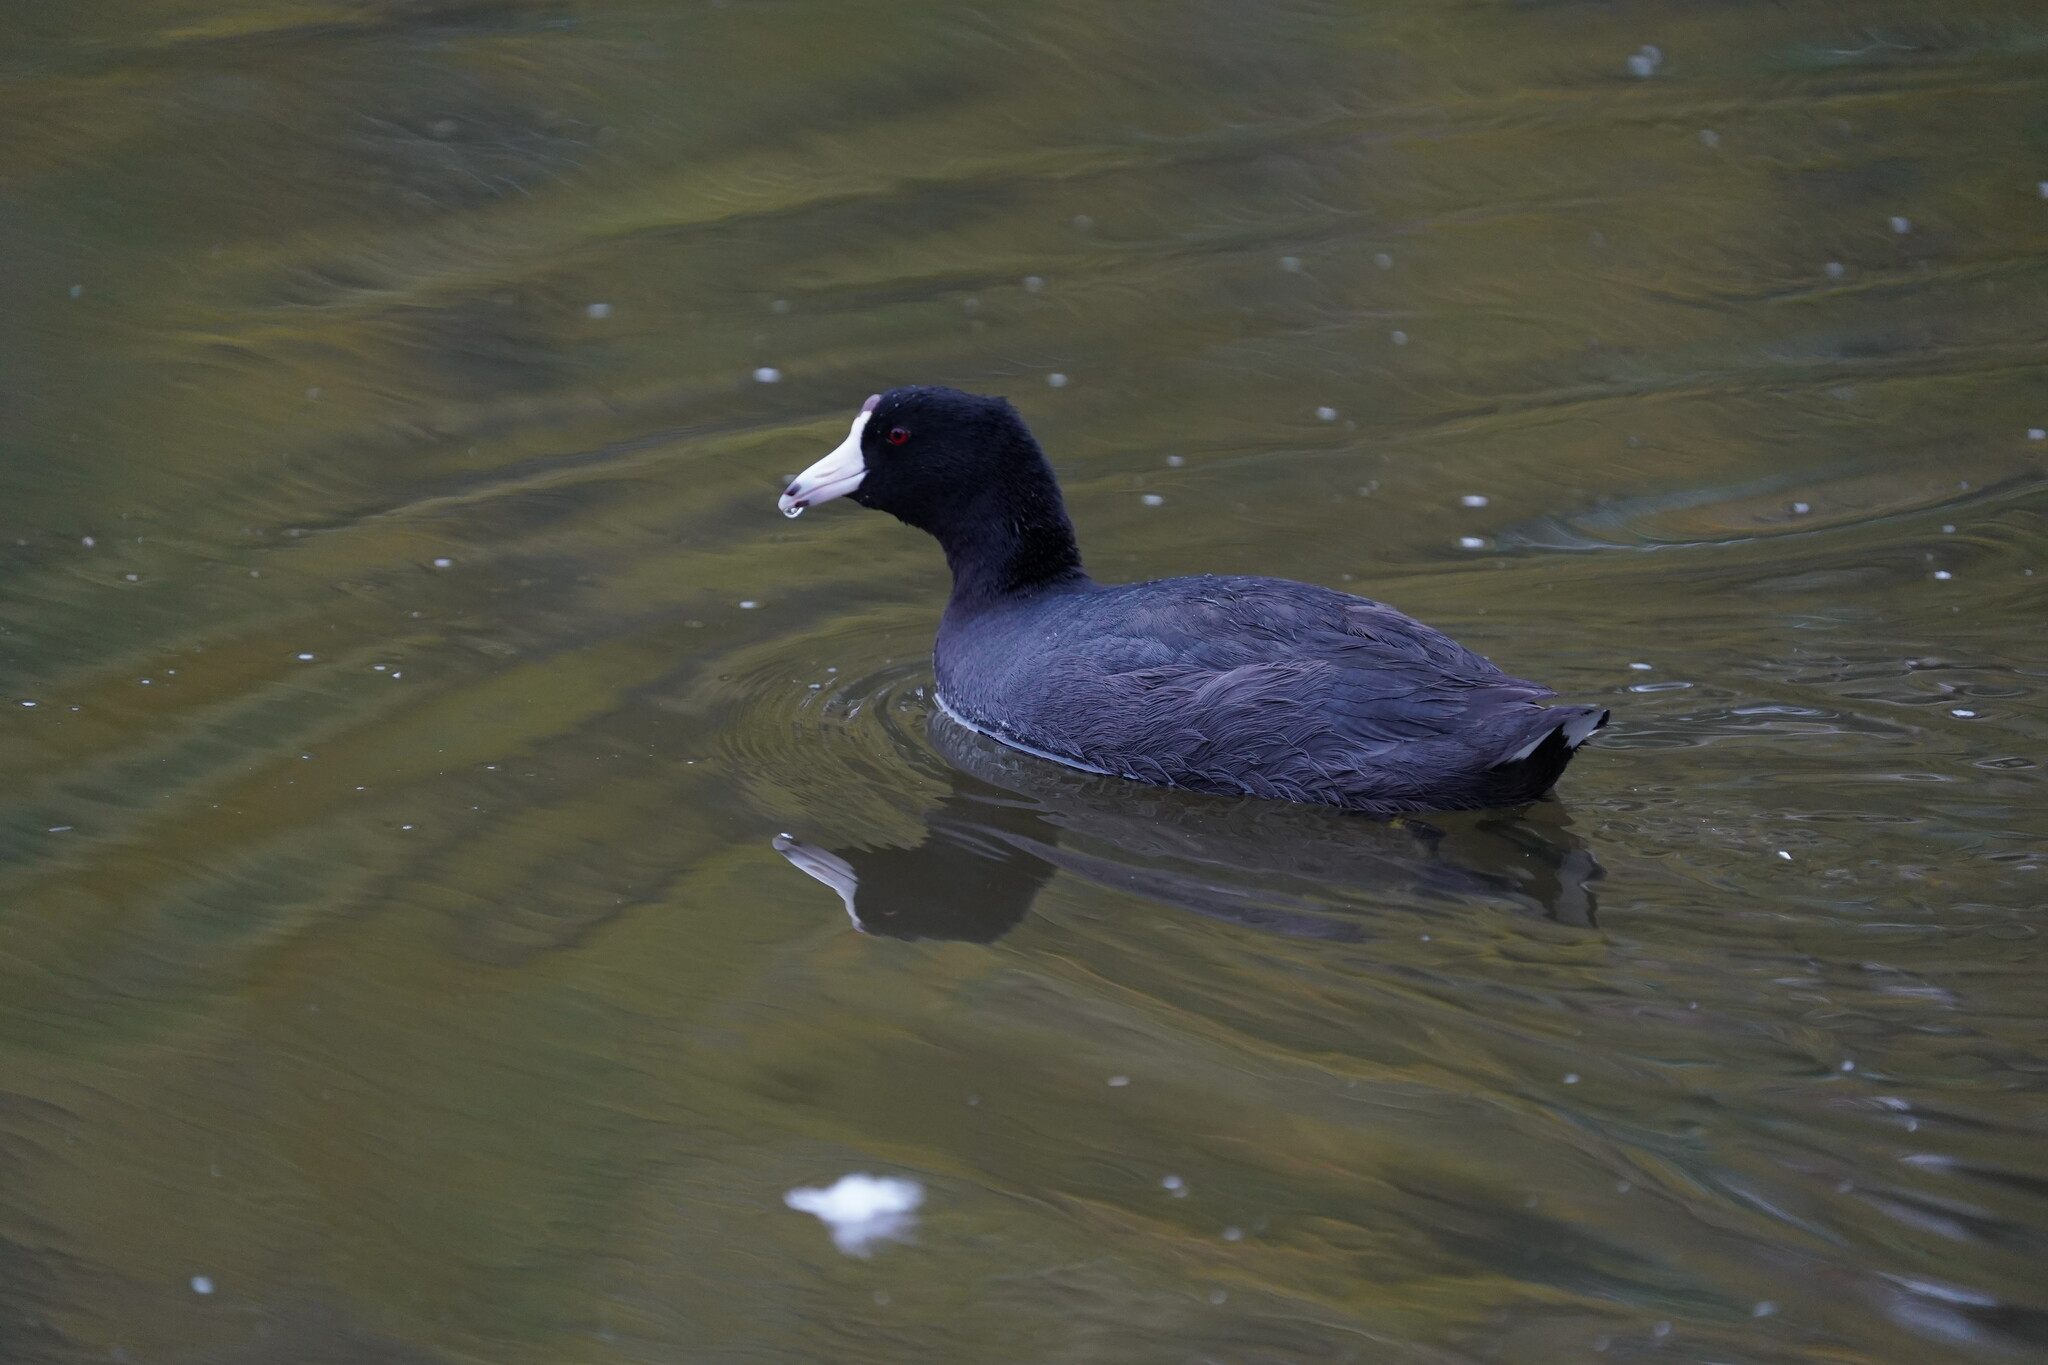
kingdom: Animalia
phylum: Chordata
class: Aves
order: Gruiformes
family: Rallidae
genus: Fulica
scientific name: Fulica americana
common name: American coot
